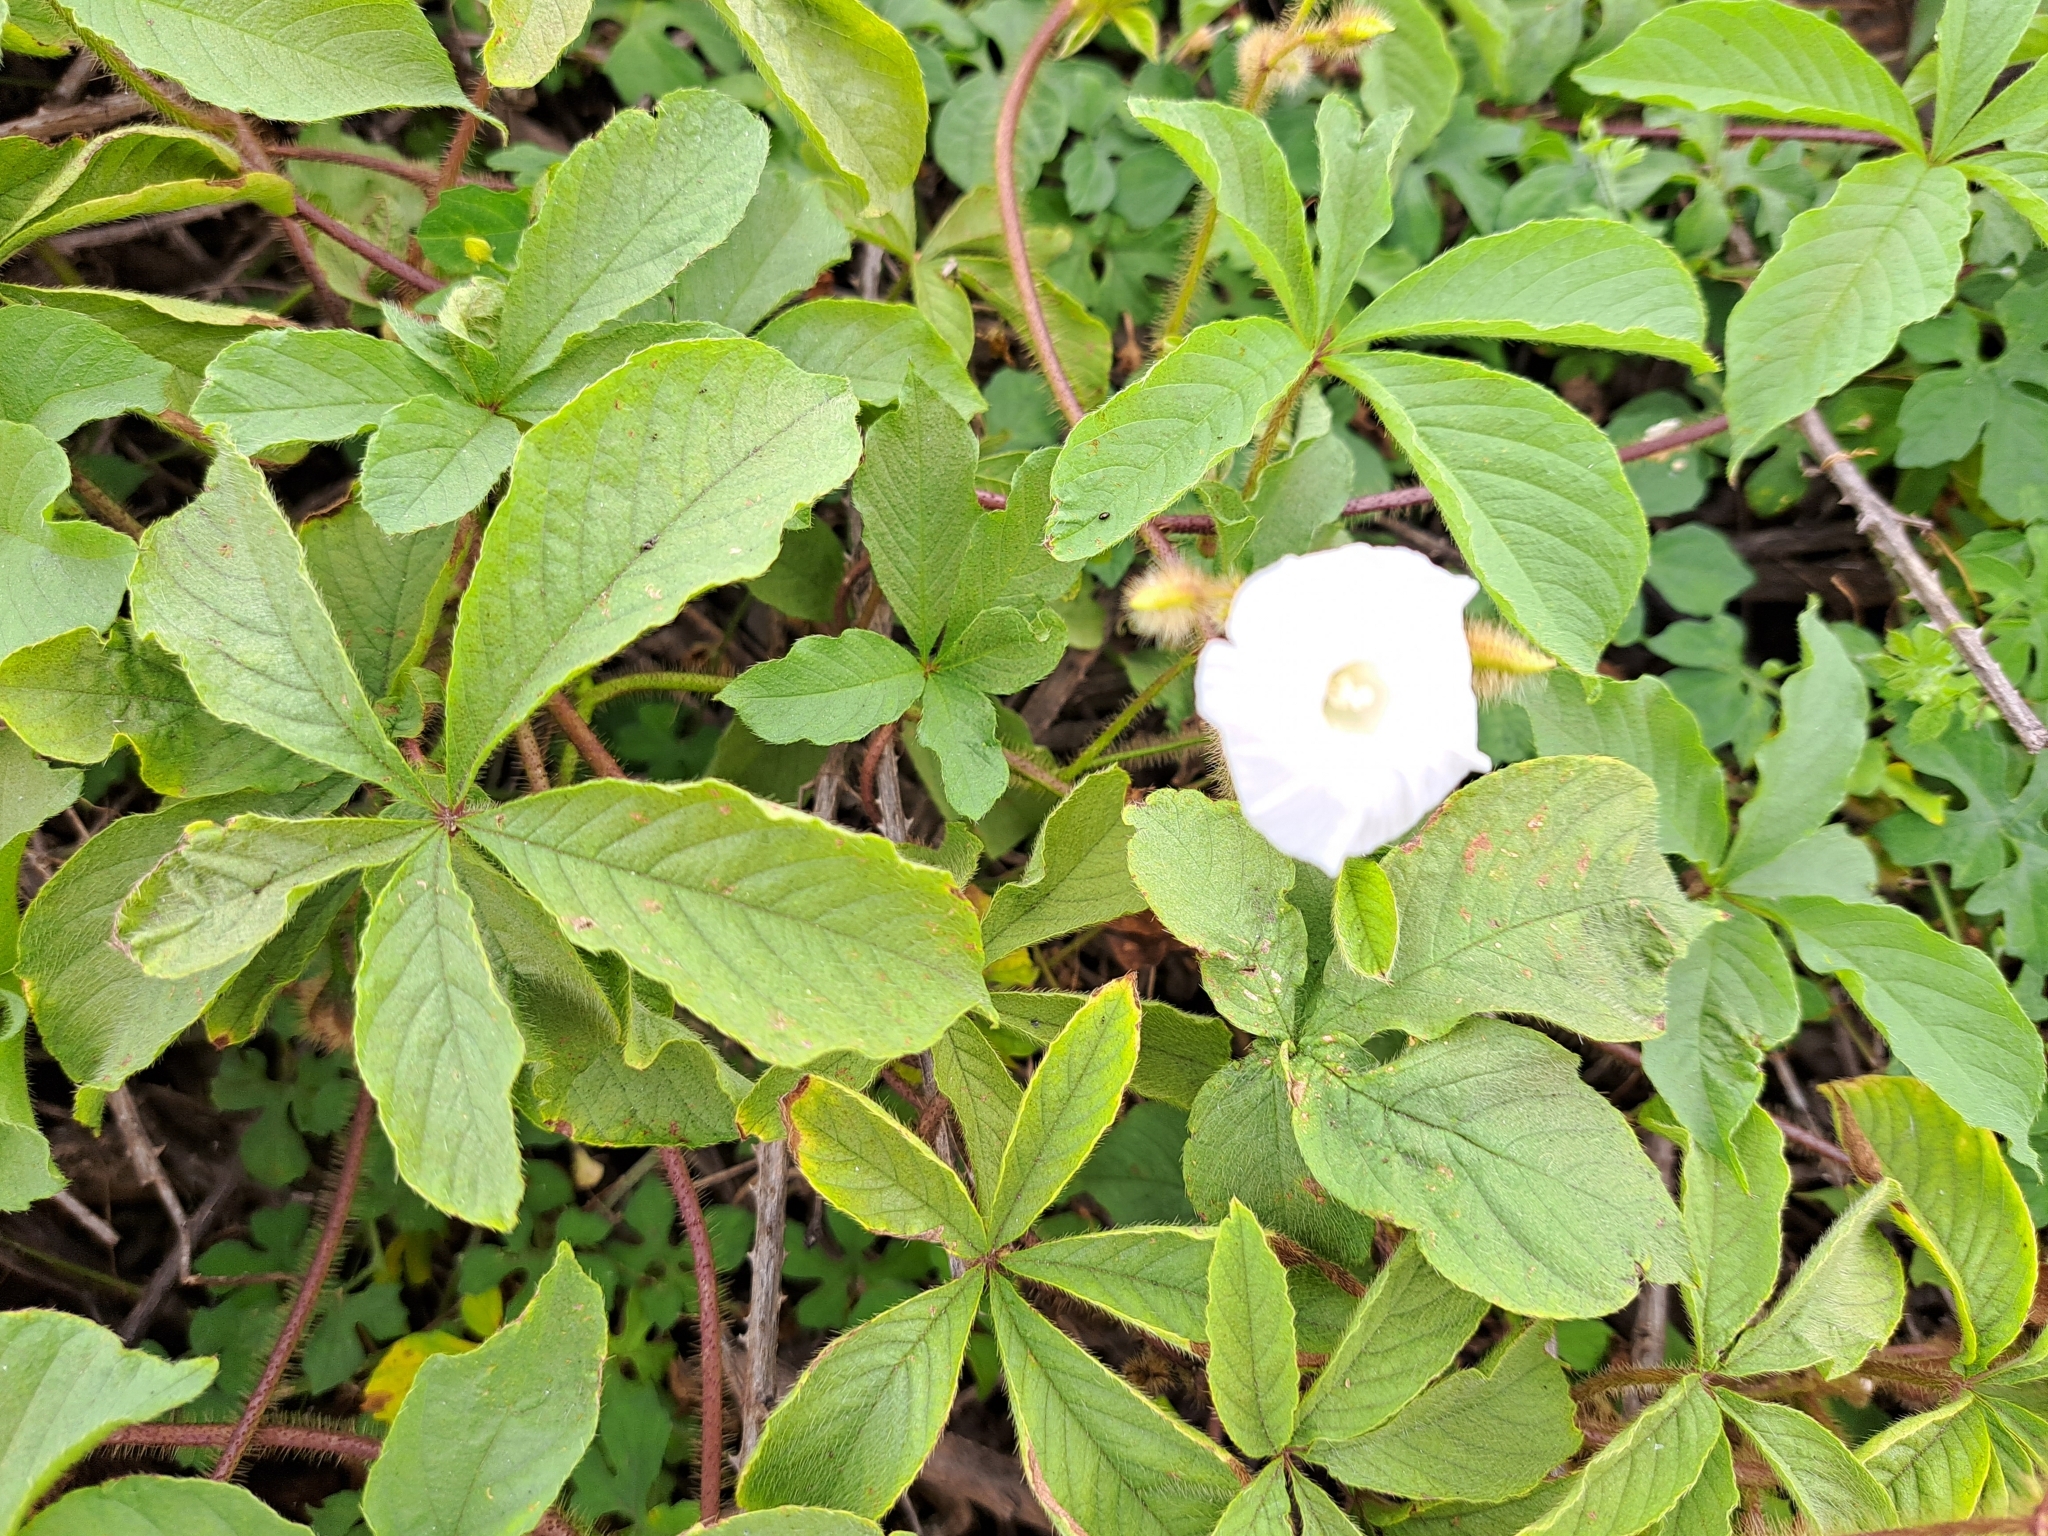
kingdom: Plantae
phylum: Tracheophyta
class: Magnoliopsida
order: Solanales
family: Convolvulaceae
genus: Distimake
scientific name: Distimake aegyptius
